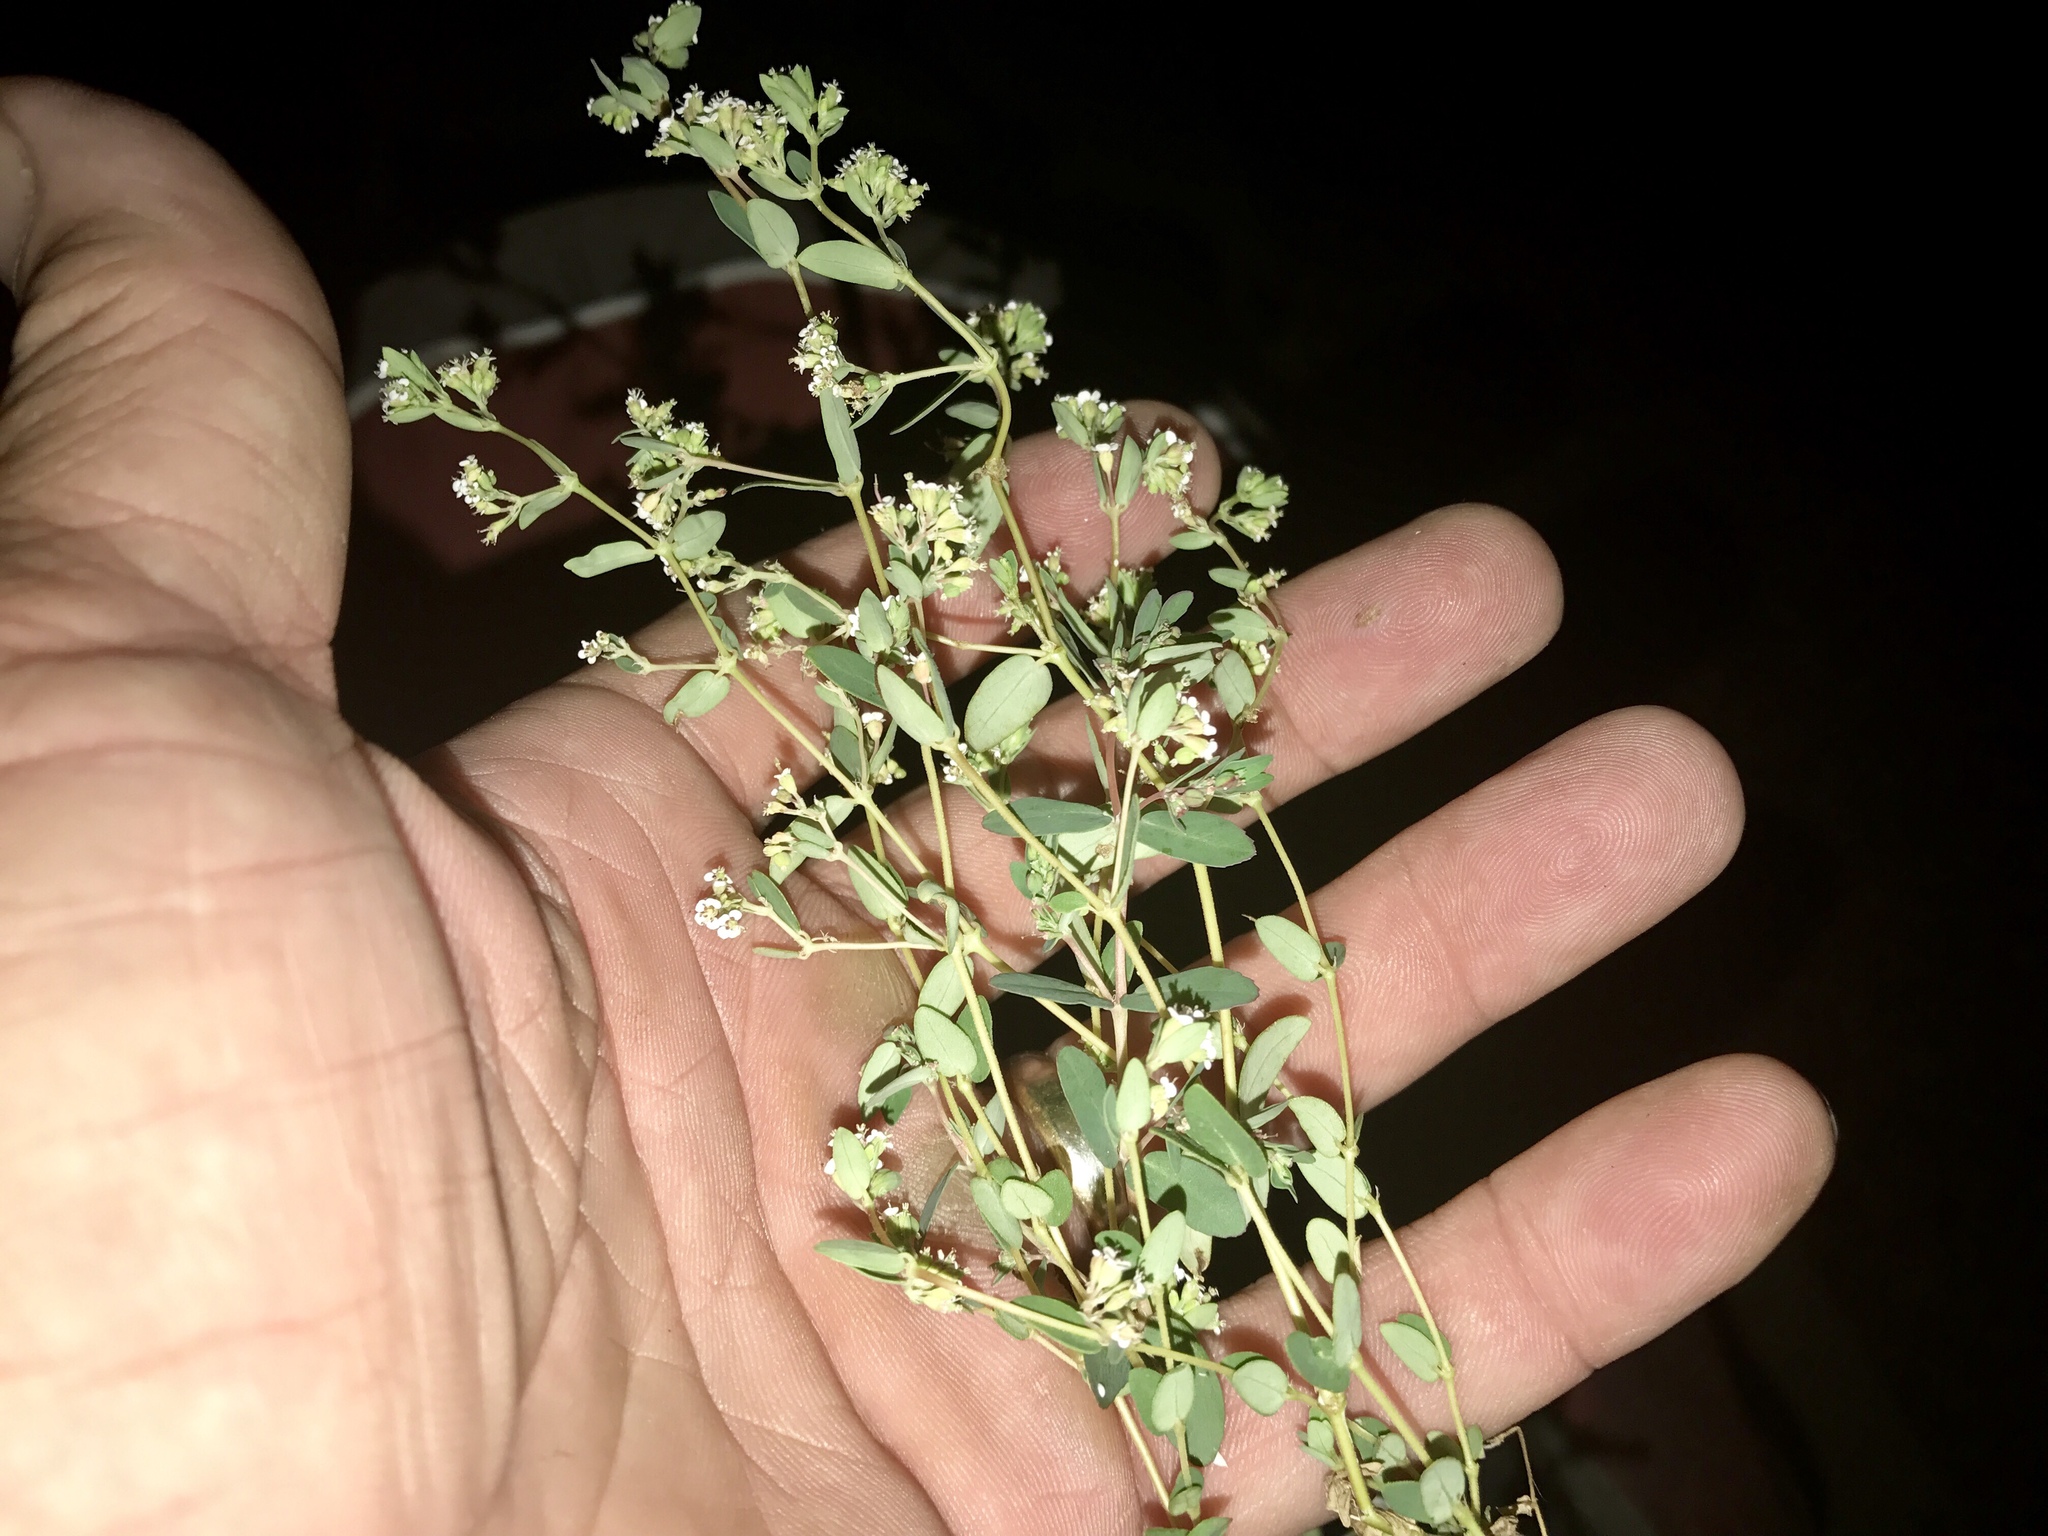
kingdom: Plantae
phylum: Tracheophyta
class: Magnoliopsida
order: Malpighiales
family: Euphorbiaceae
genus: Euphorbia
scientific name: Euphorbia capitellata
